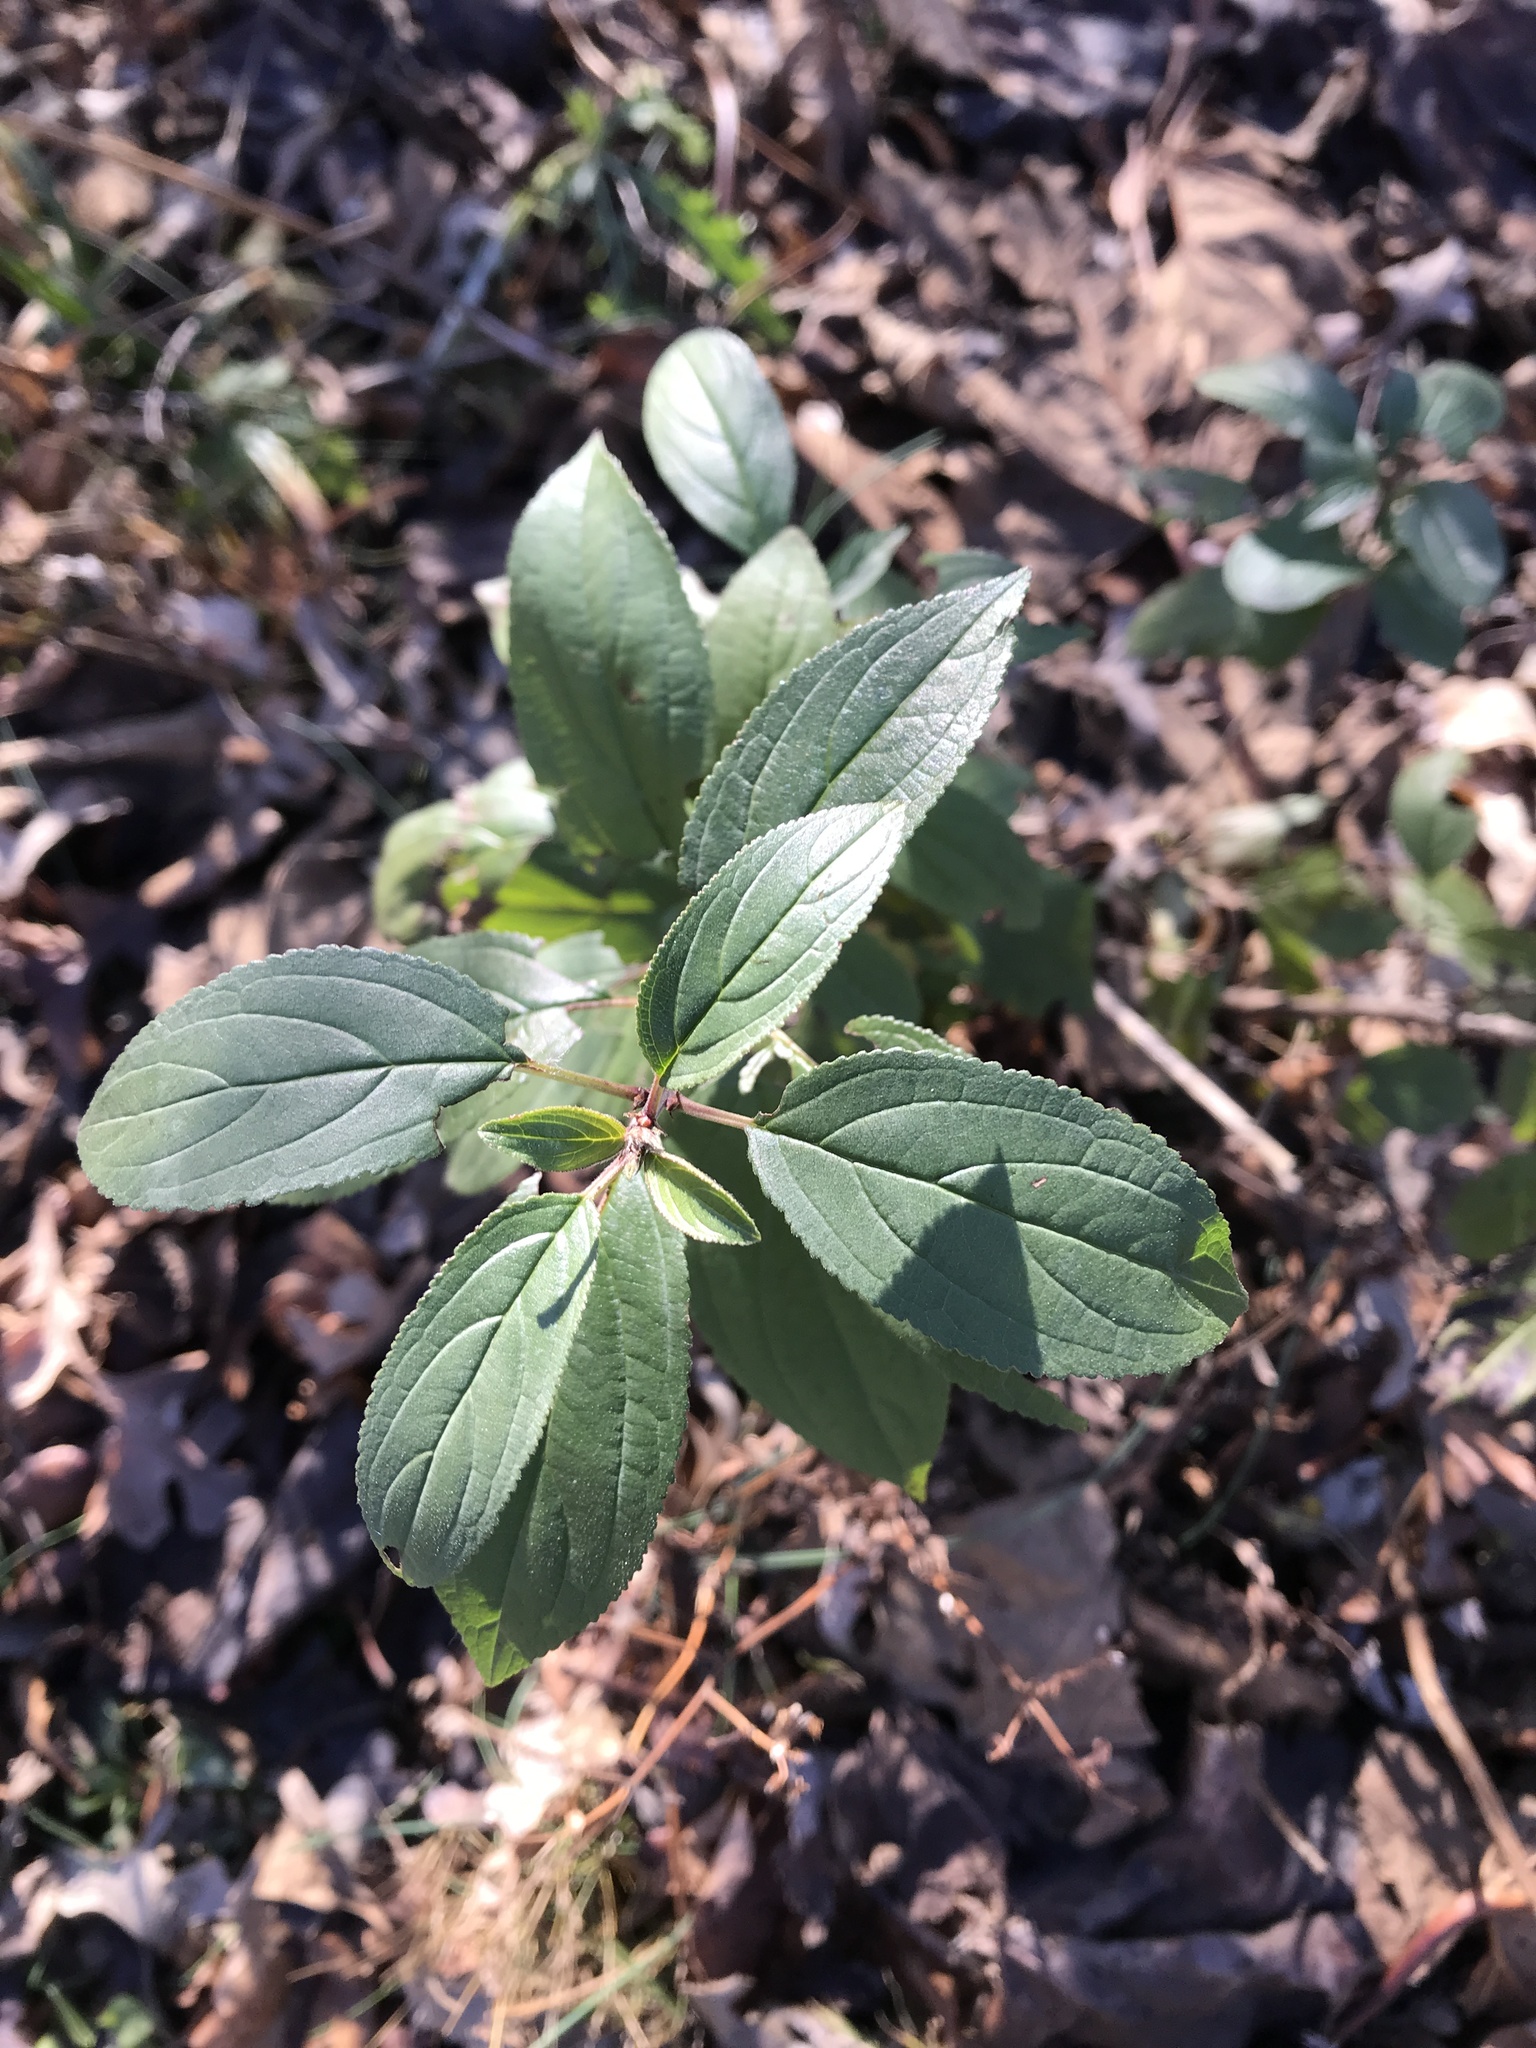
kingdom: Plantae
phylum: Tracheophyta
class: Magnoliopsida
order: Rosales
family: Rhamnaceae
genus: Rhamnus
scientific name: Rhamnus cathartica
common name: Common buckthorn
